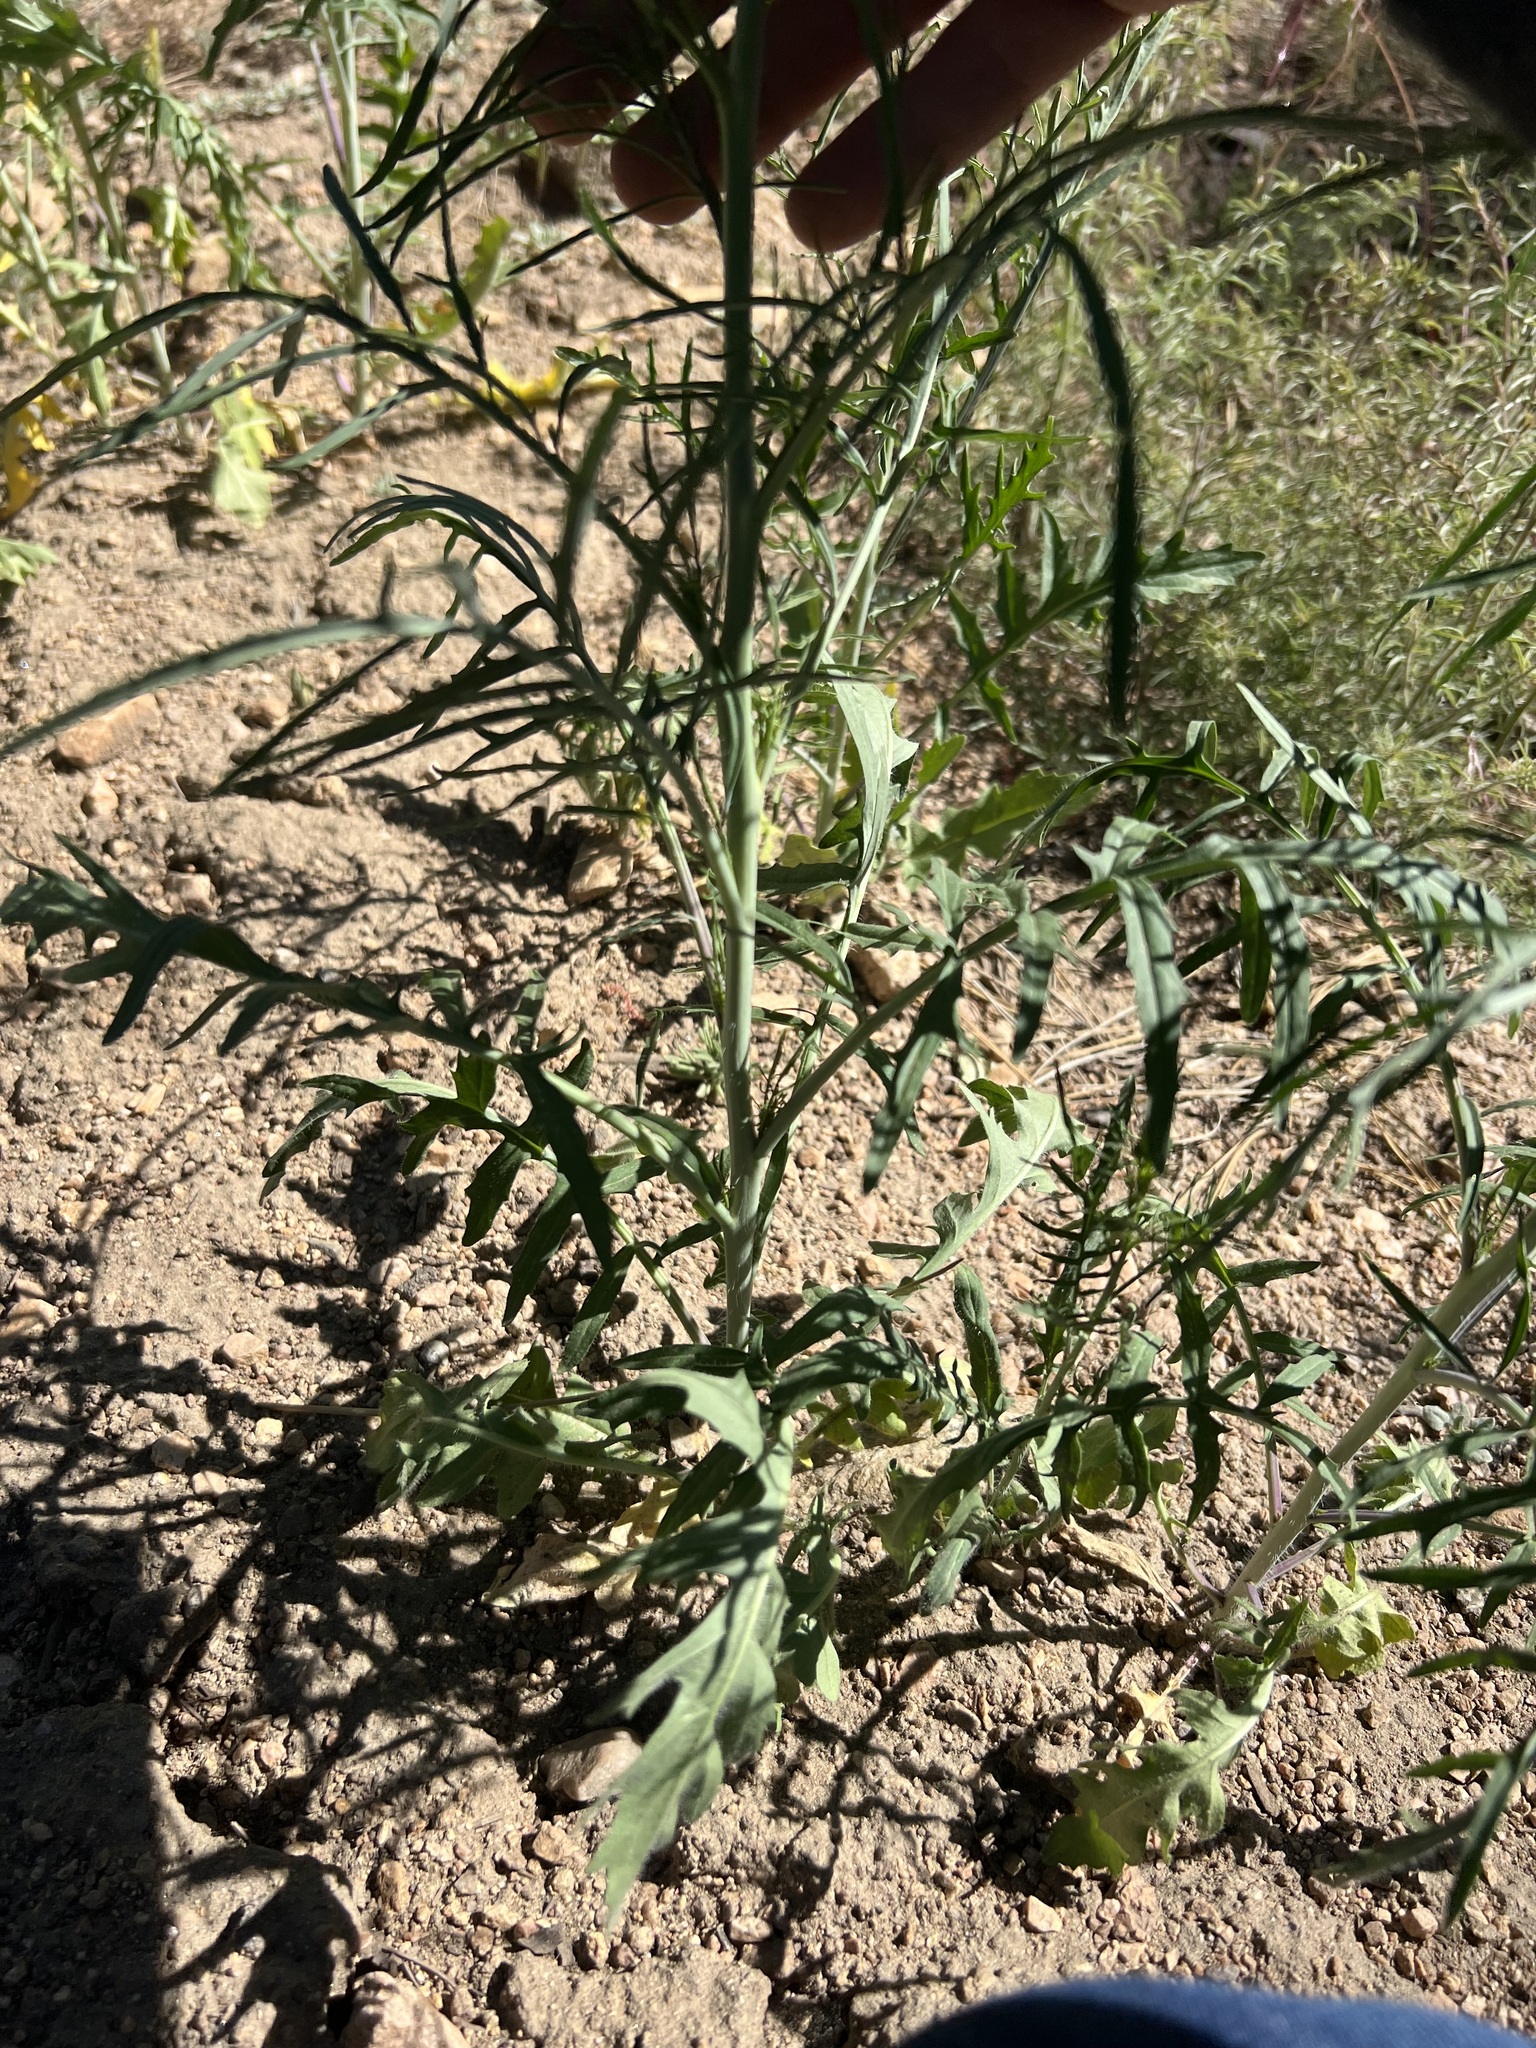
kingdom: Plantae
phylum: Tracheophyta
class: Magnoliopsida
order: Brassicales
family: Brassicaceae
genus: Sisymbrium
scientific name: Sisymbrium altissimum
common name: Tall rocket
